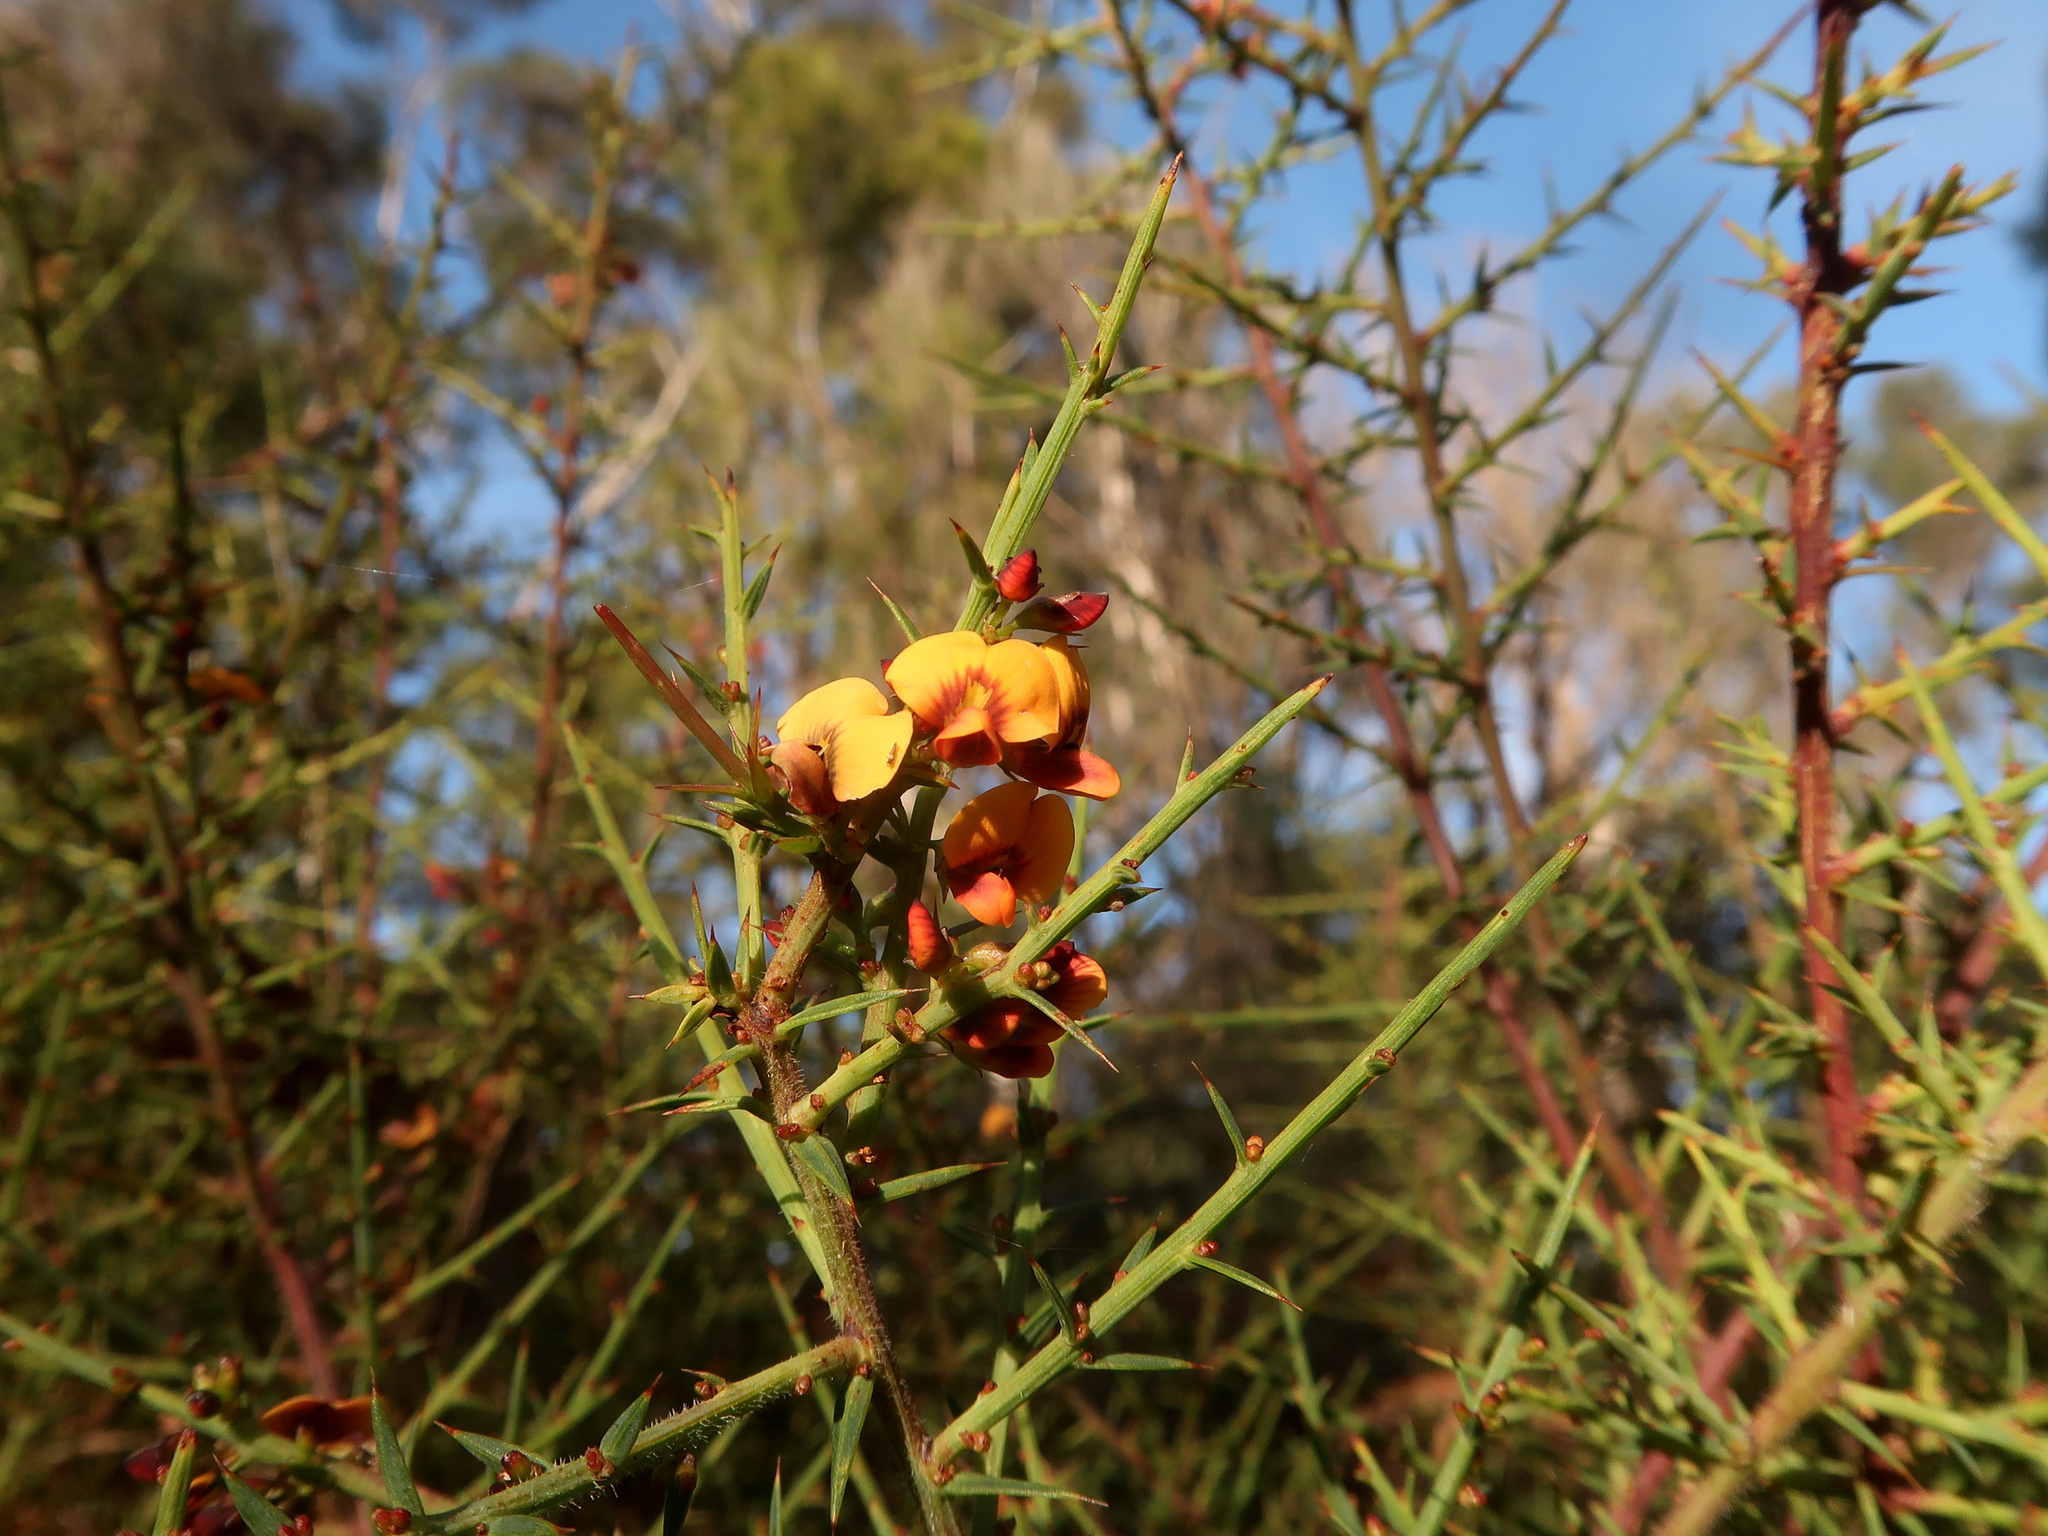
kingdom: Plantae
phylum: Tracheophyta
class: Magnoliopsida
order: Fabales
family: Fabaceae
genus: Daviesia
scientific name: Daviesia ulicifolia
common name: Gorse bitter-pea
